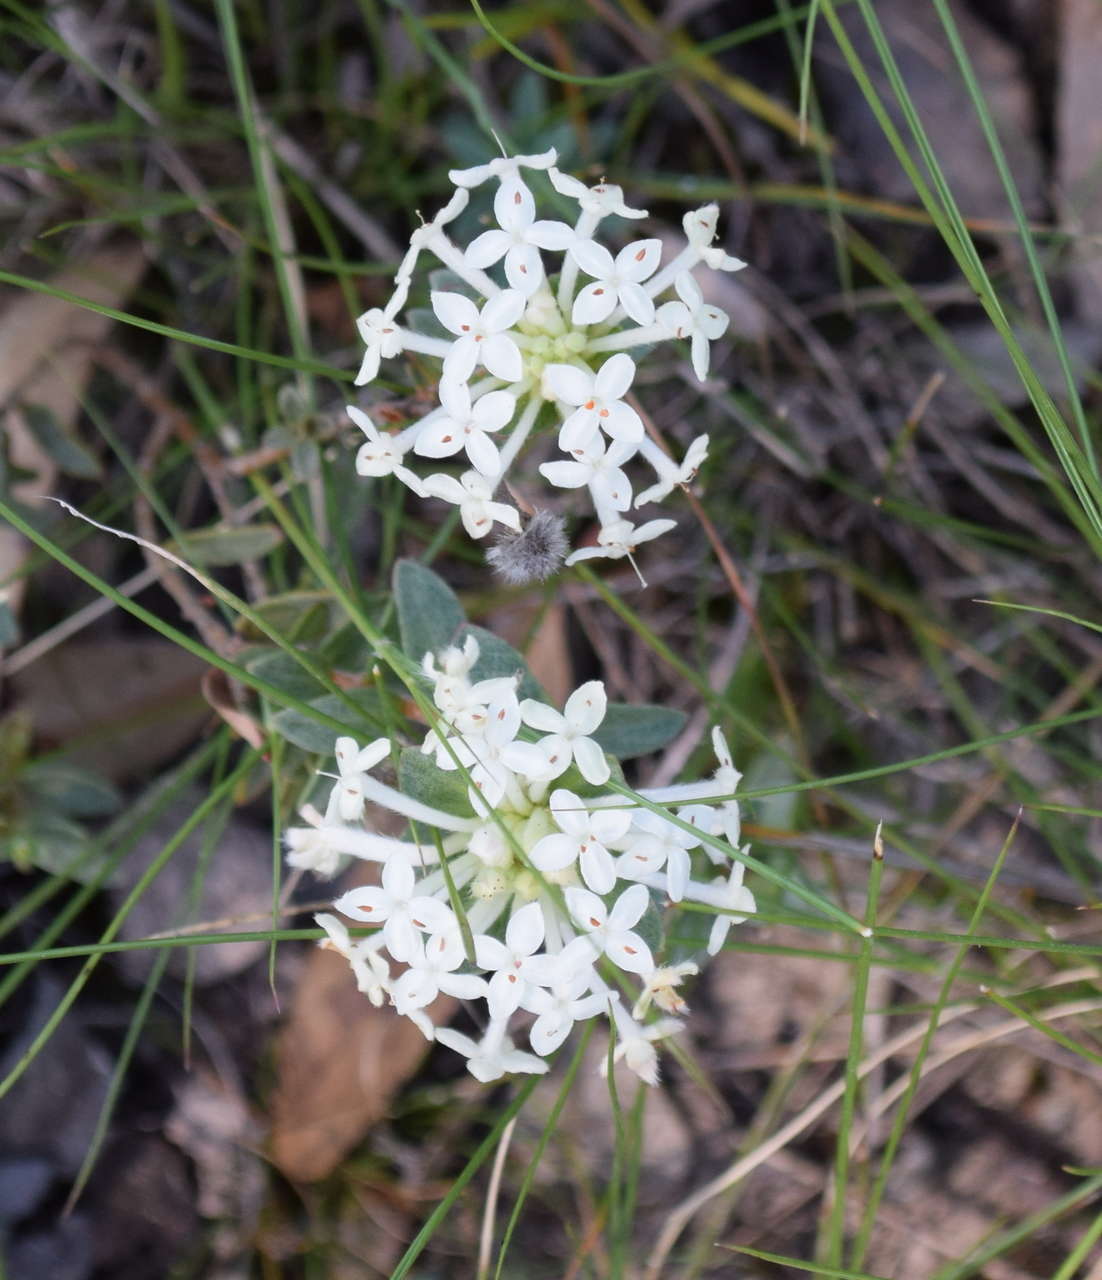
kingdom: Plantae
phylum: Tracheophyta
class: Magnoliopsida
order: Malvales
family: Thymelaeaceae
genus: Pimelea
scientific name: Pimelea humilis
